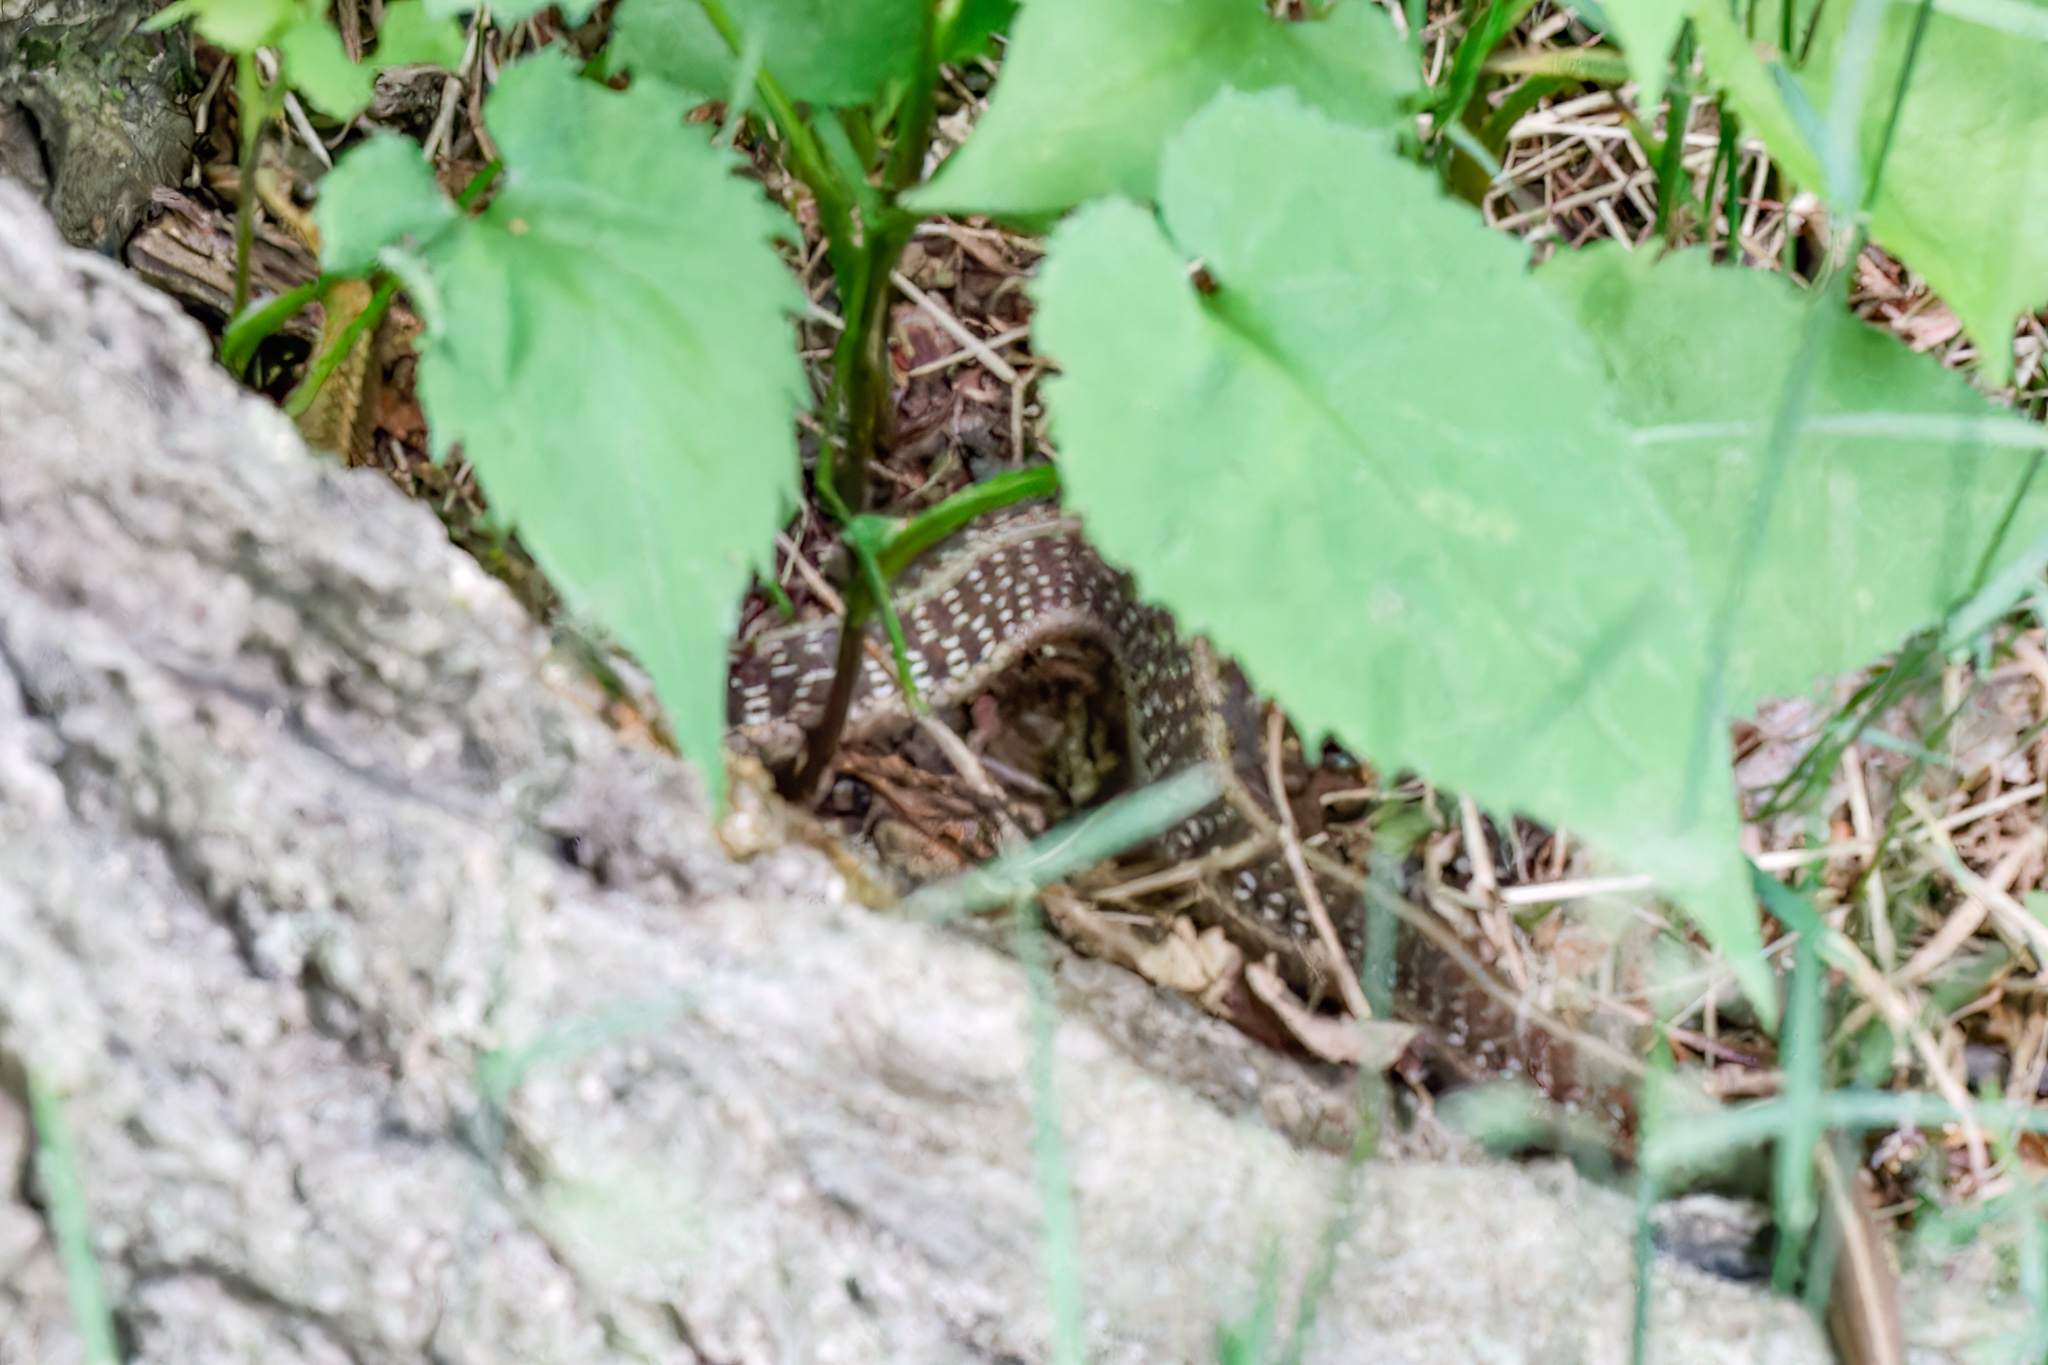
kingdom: Animalia
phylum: Chordata
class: Squamata
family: Colubridae
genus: Thamnophis
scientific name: Thamnophis sirtalis
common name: Common garter snake
